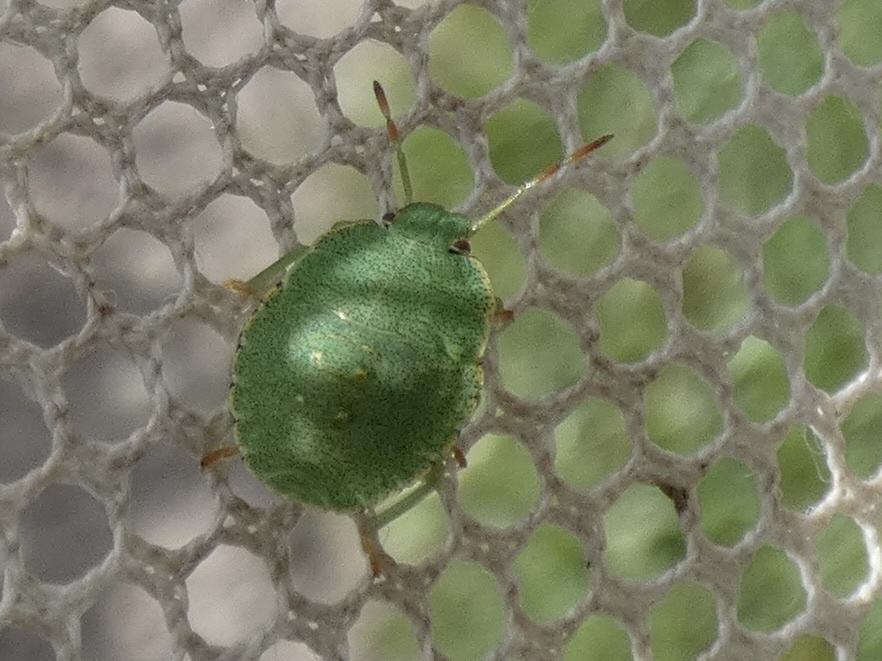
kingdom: Animalia
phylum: Arthropoda
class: Insecta
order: Hemiptera
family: Pentatomidae
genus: Palomena
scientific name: Palomena prasina
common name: Green shieldbug
